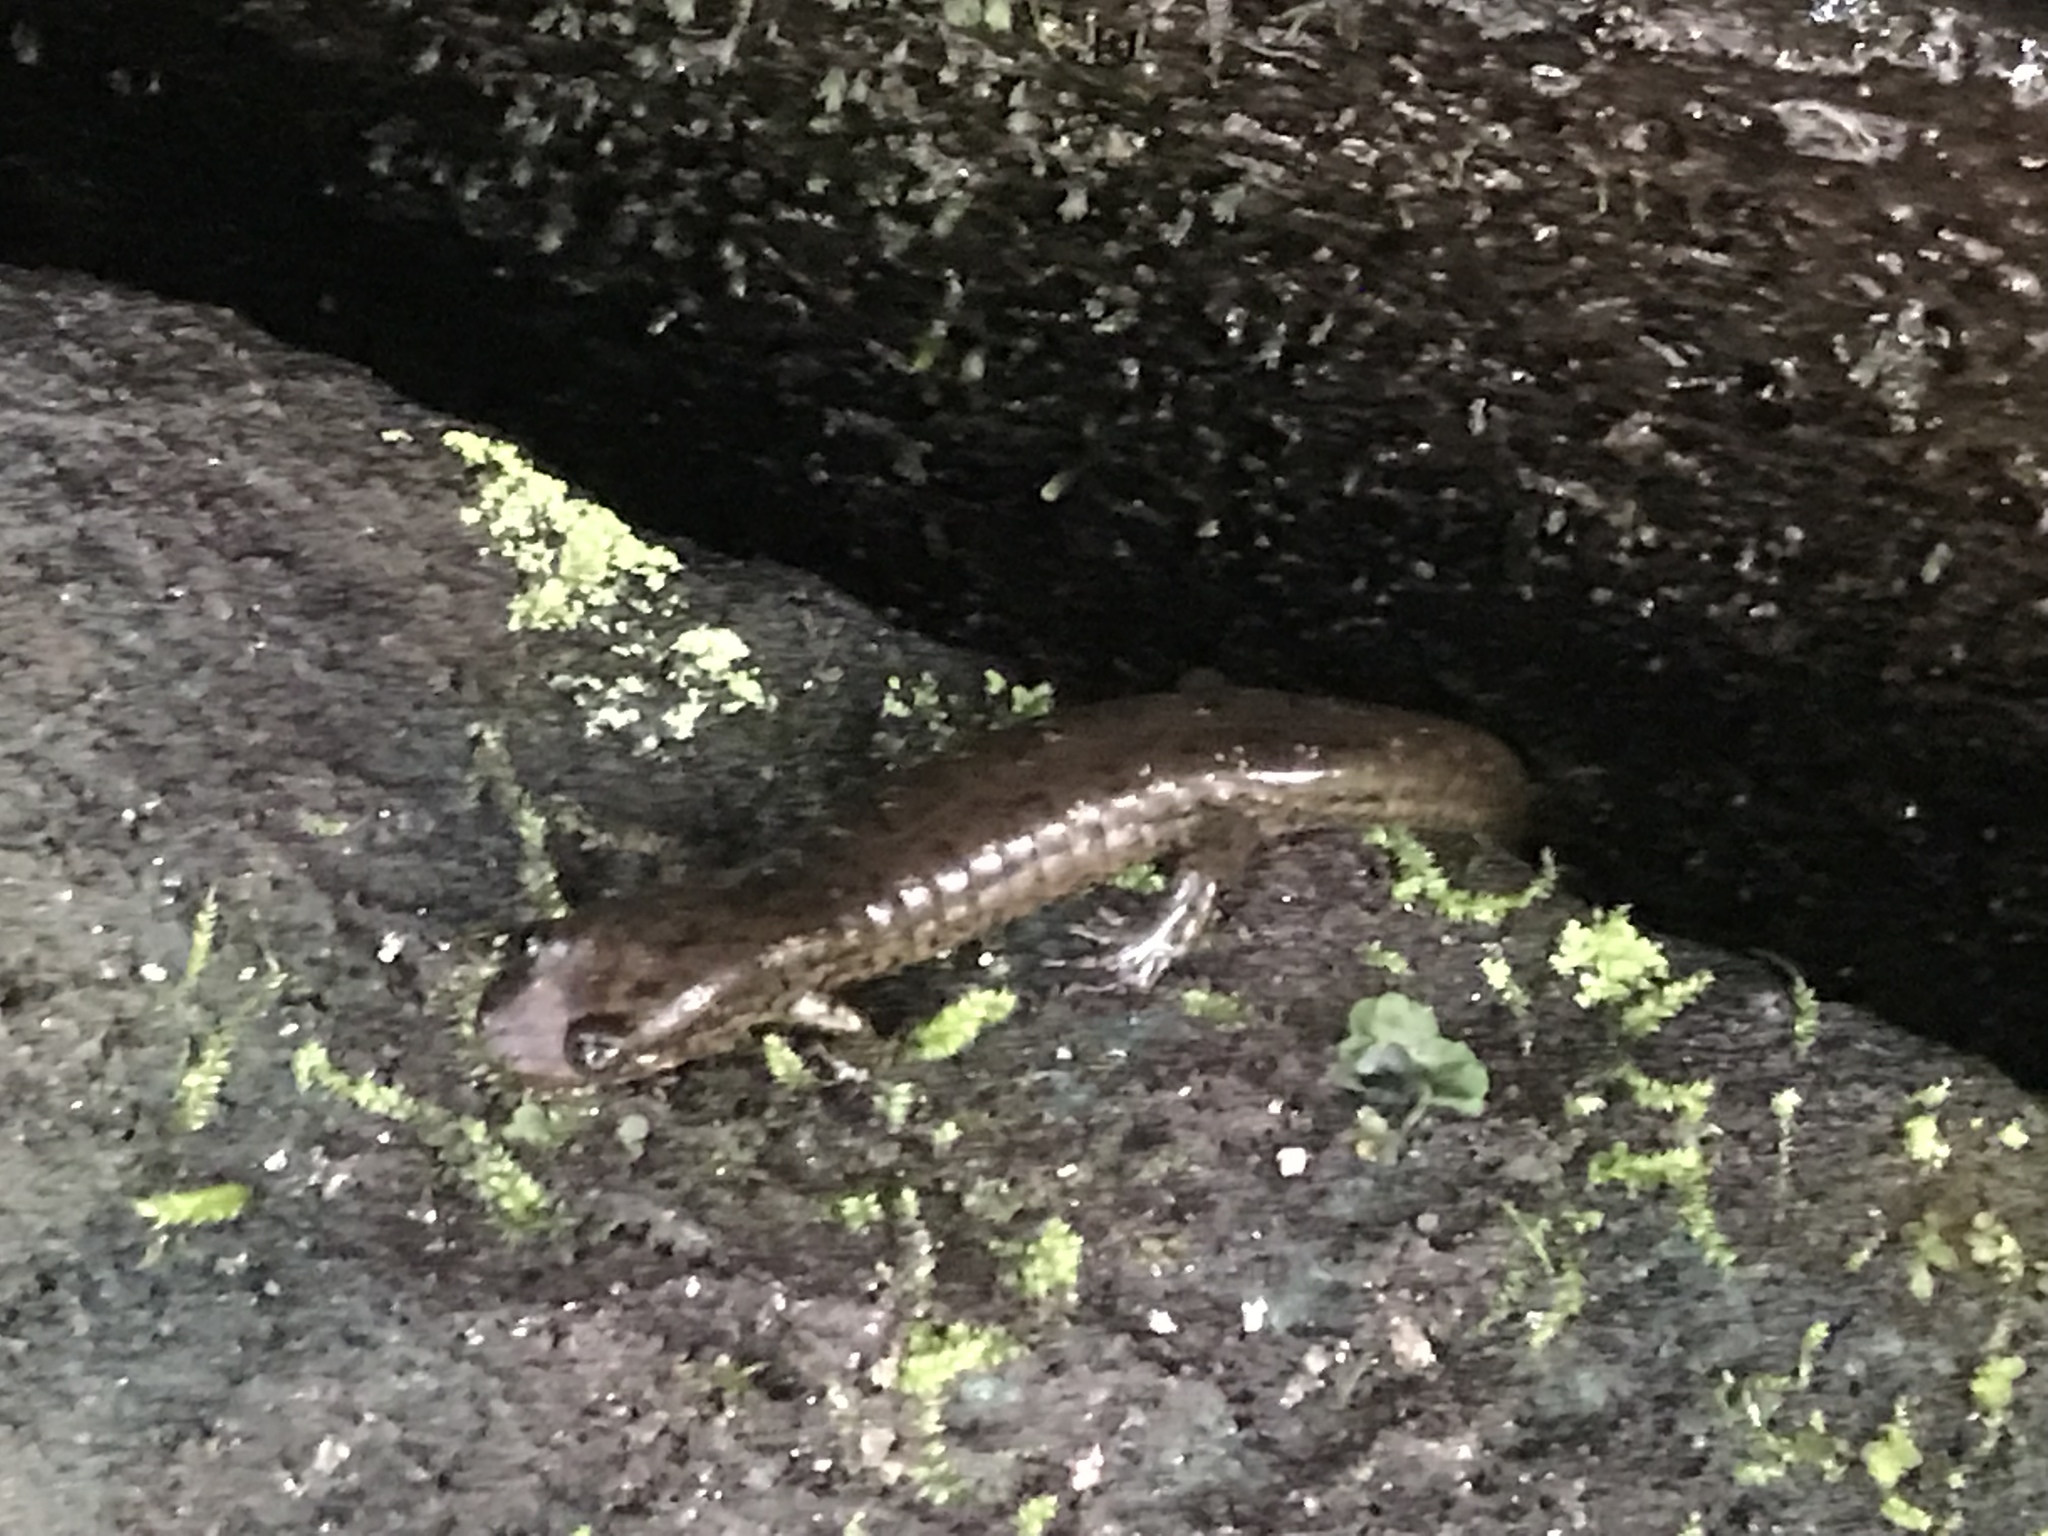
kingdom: Animalia
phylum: Chordata
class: Amphibia
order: Caudata
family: Plethodontidae
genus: Desmognathus
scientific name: Desmognathus
